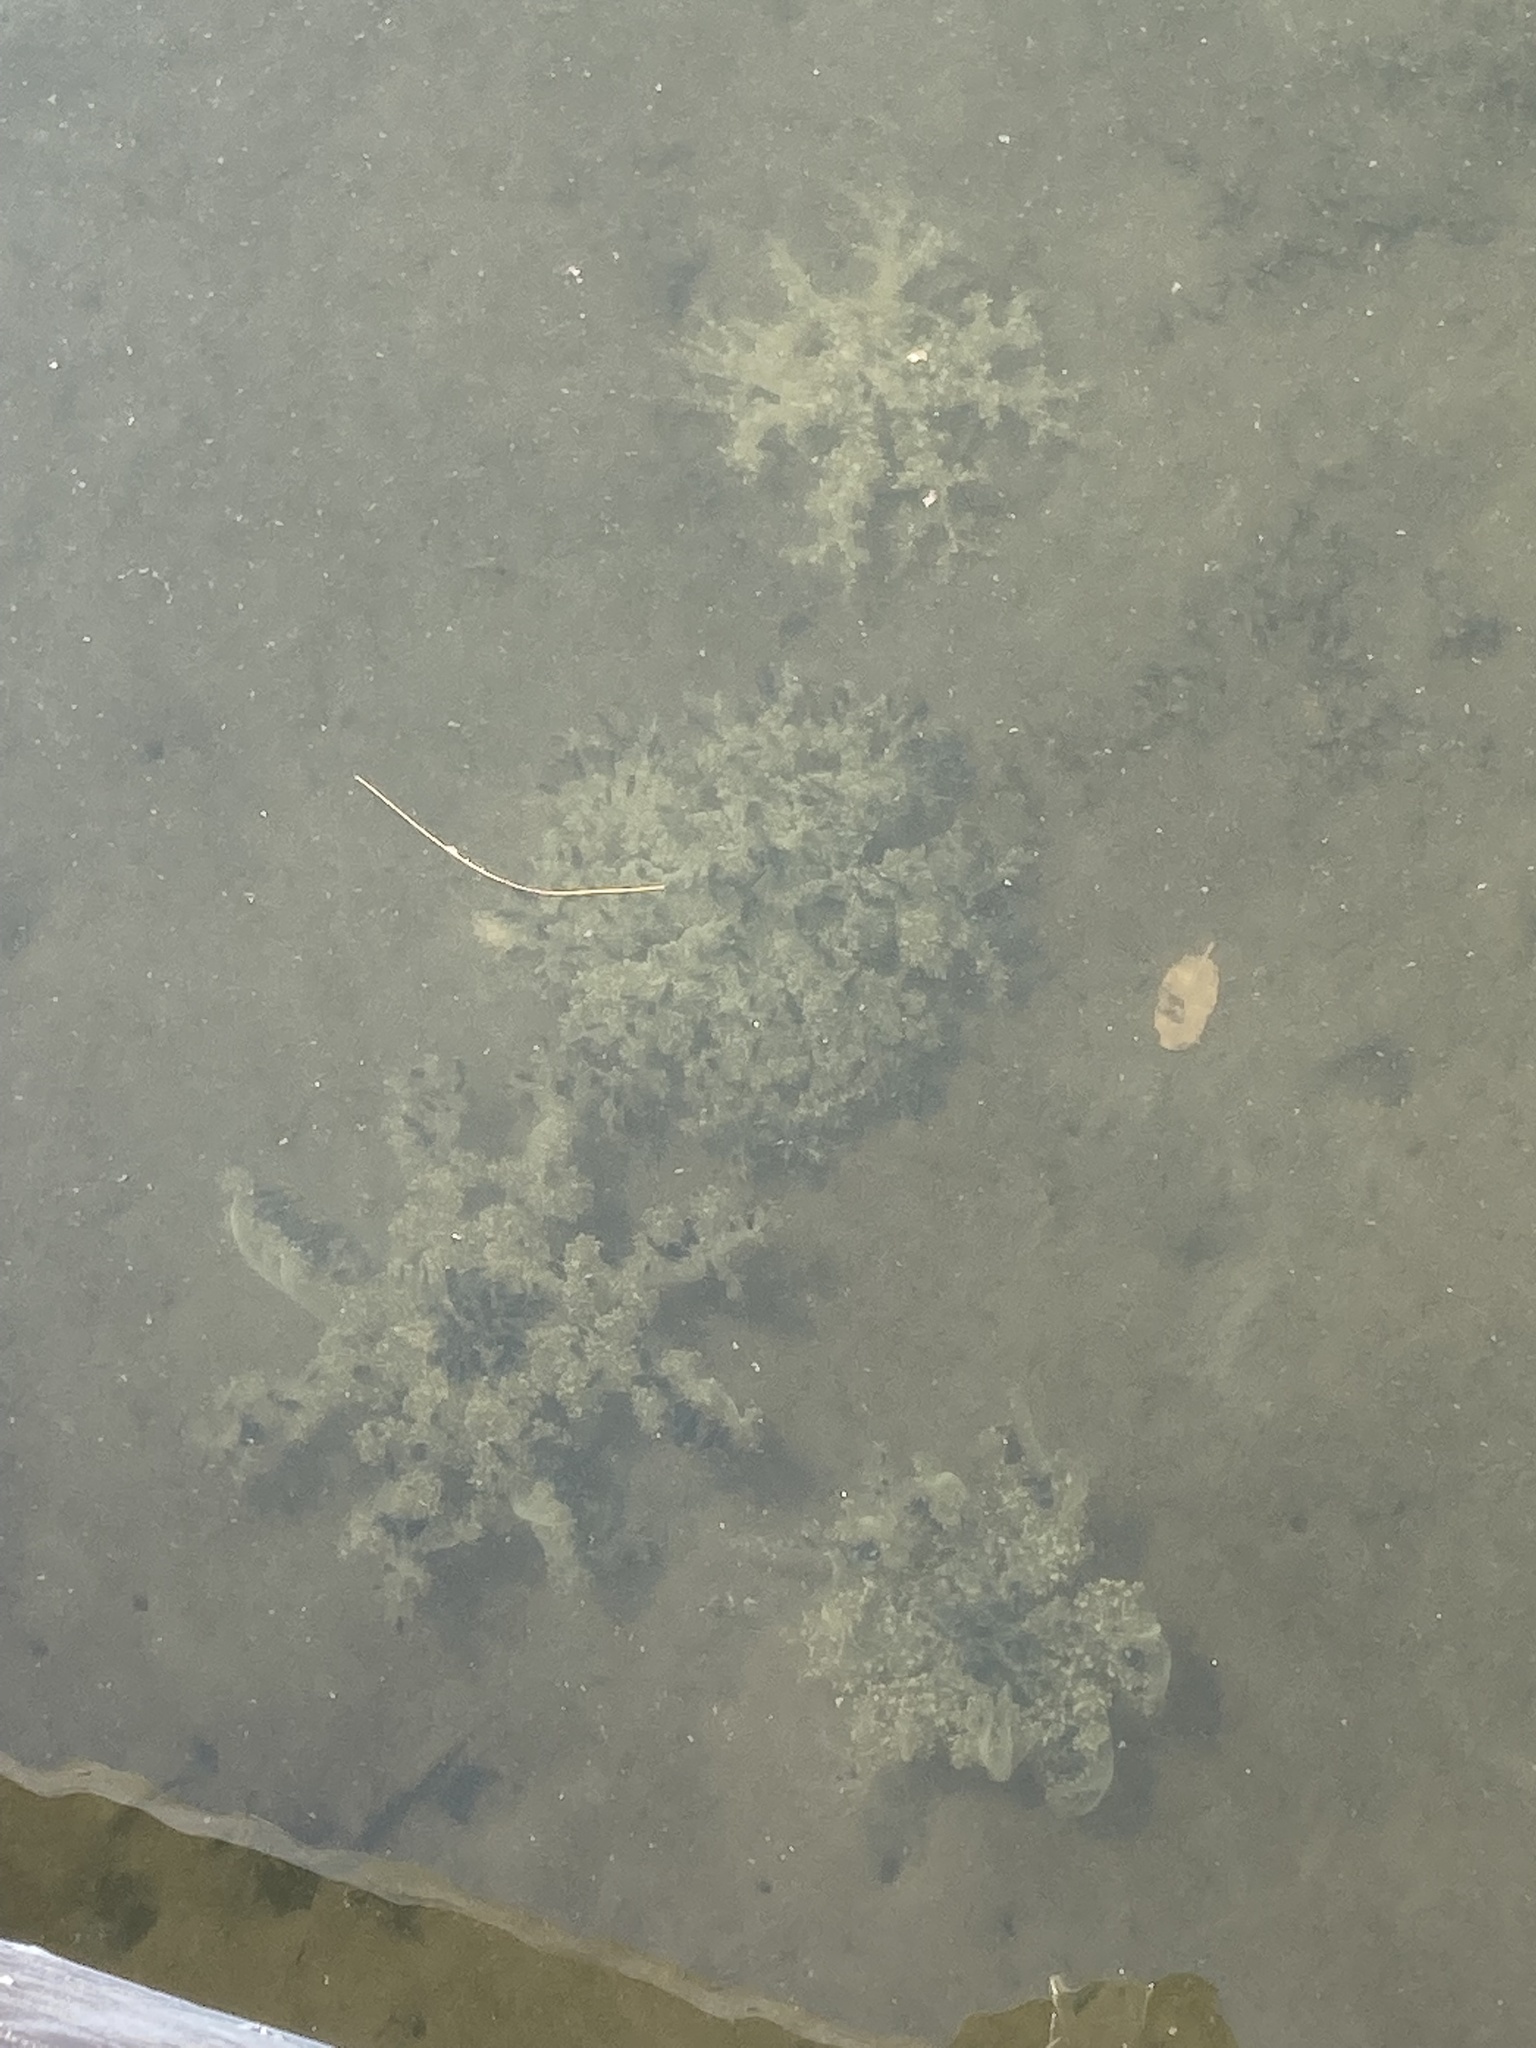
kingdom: Animalia
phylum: Cnidaria
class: Scyphozoa
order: Rhizostomeae
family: Cassiopeidae
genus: Cassiopea
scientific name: Cassiopea andromeda
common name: Upside-down jellyfish
